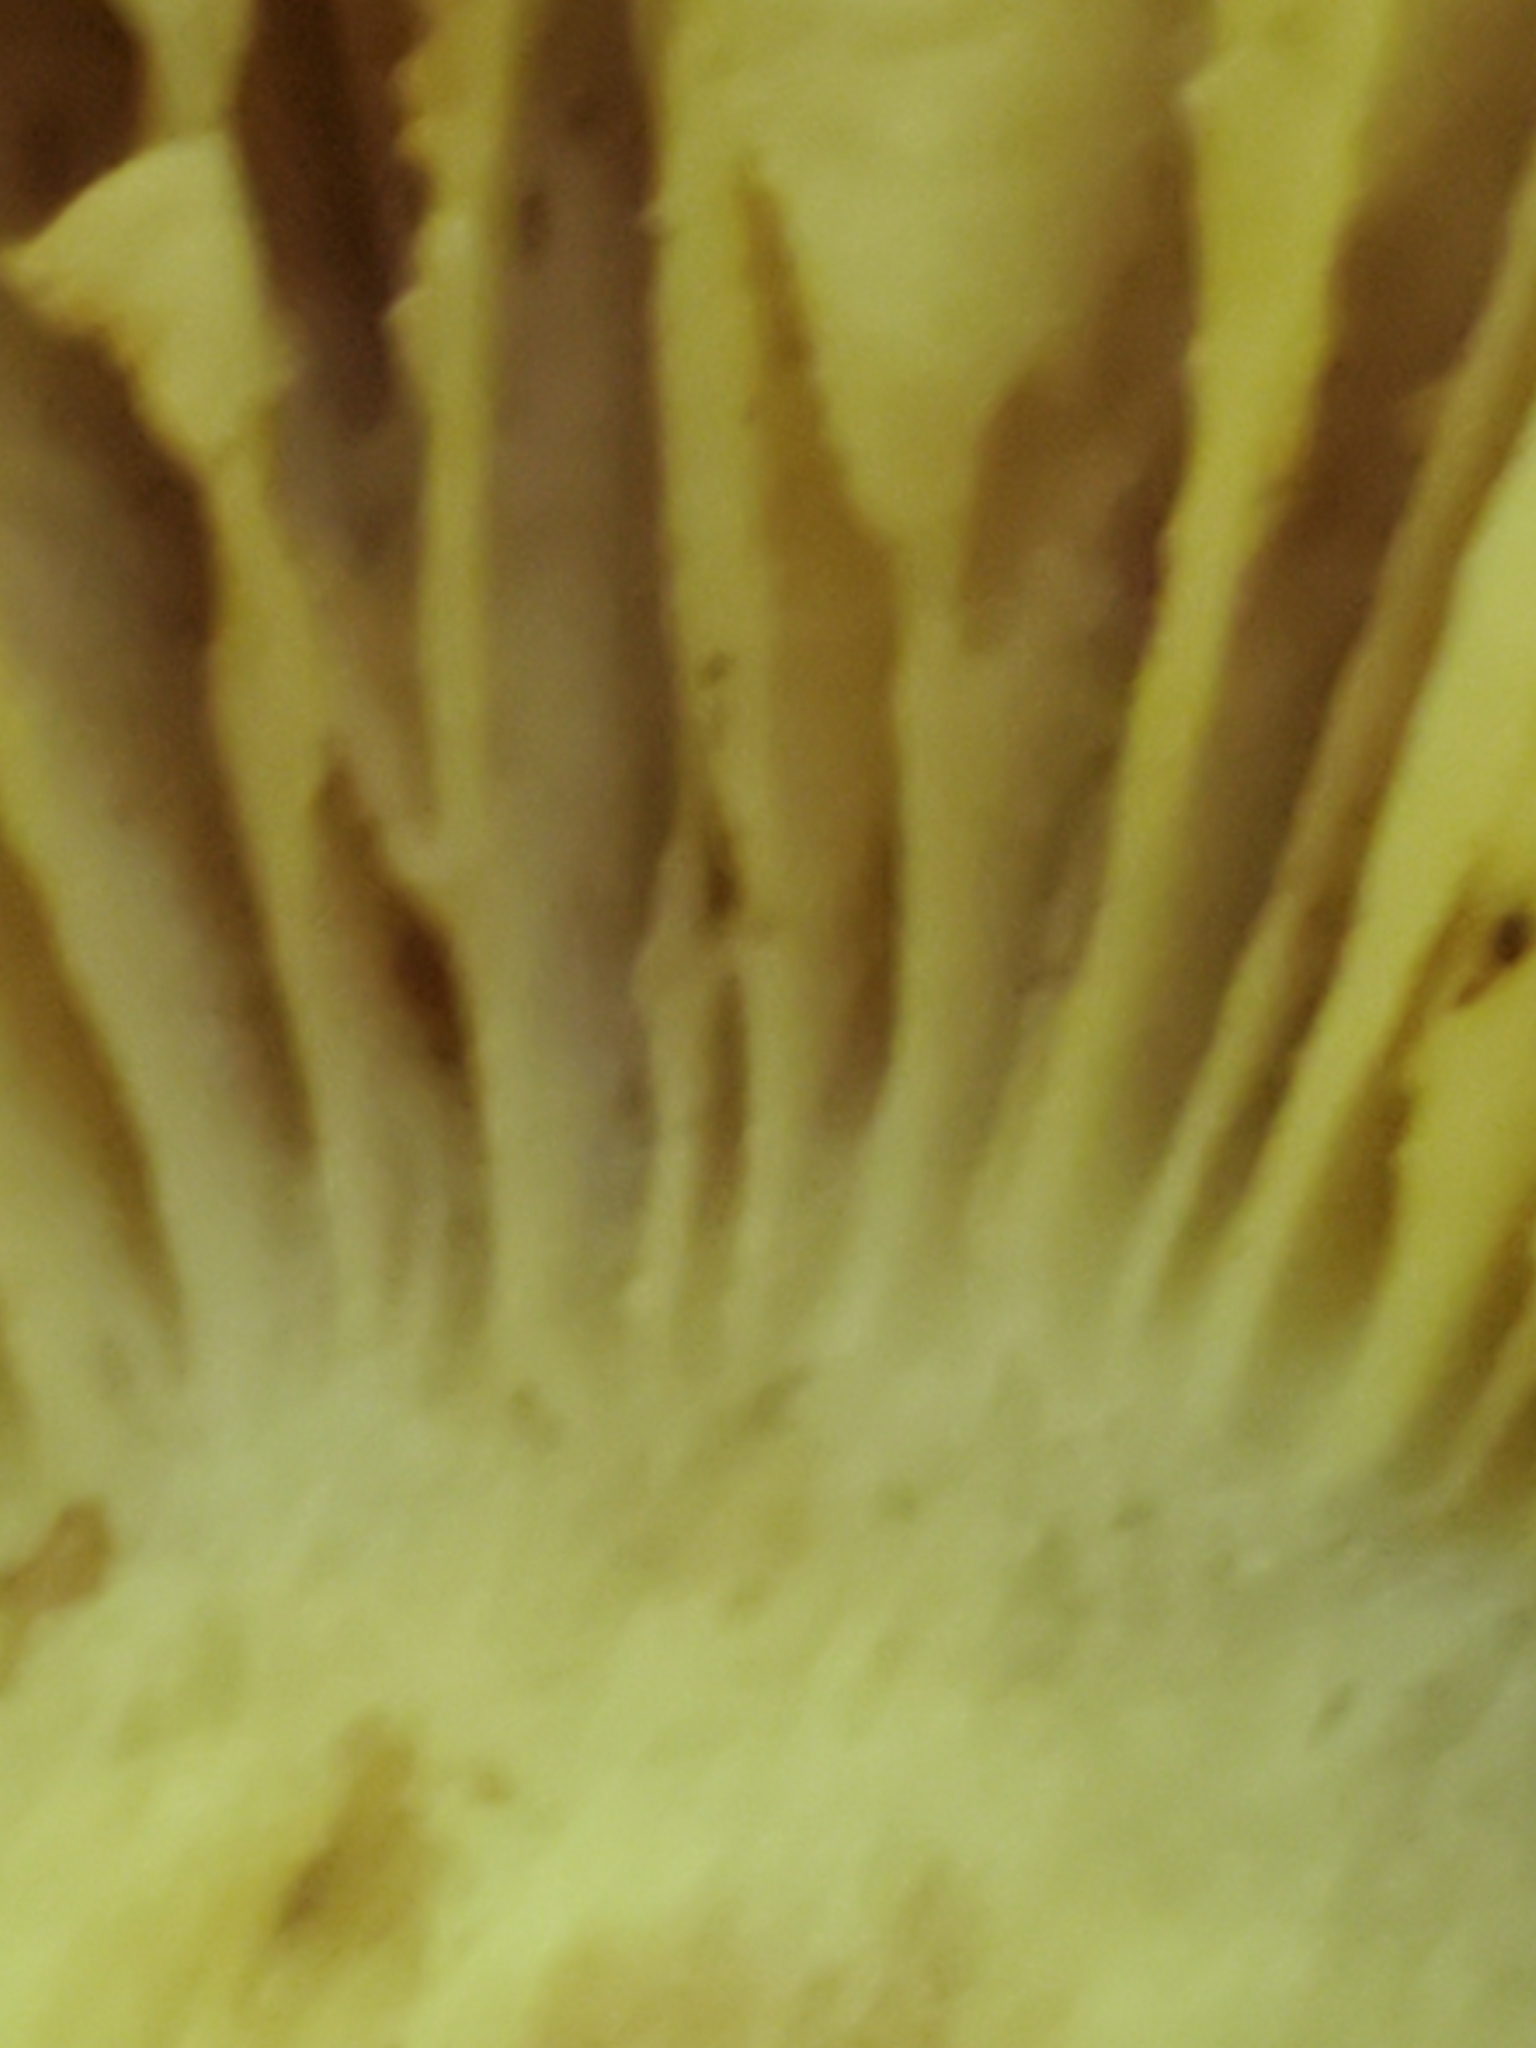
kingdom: Fungi
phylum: Basidiomycota
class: Agaricomycetes
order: Agaricales
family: Tricholomataceae
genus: Megacollybia
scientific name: Megacollybia rodmanii
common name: Eastern american platterful mushroom
